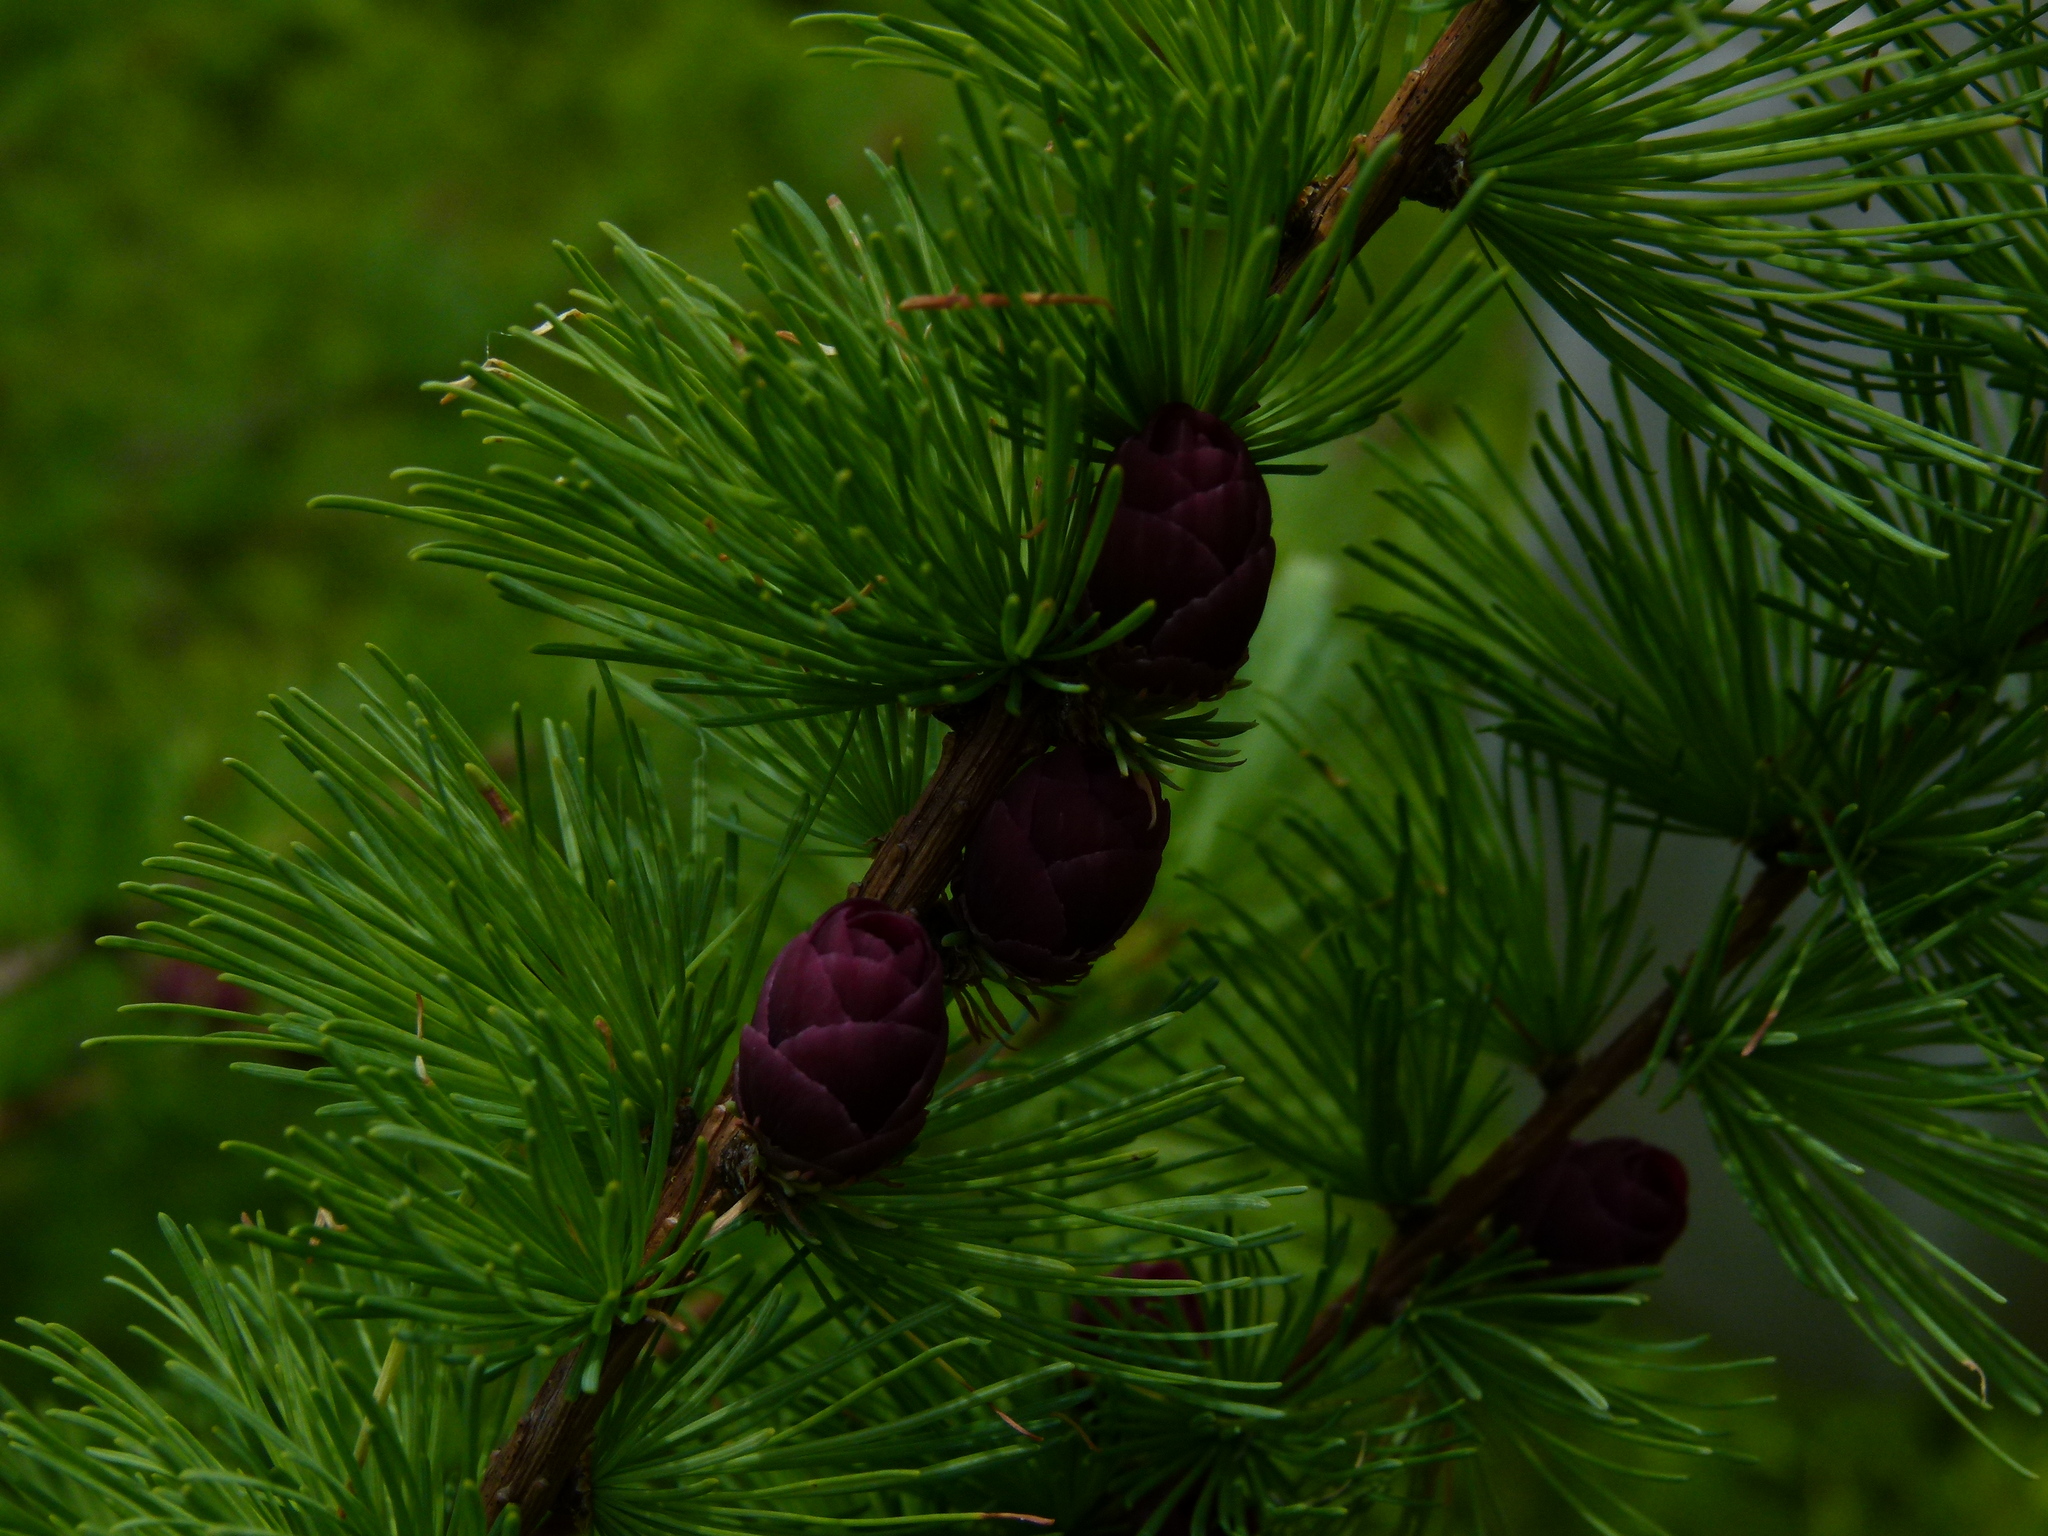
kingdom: Plantae
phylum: Tracheophyta
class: Pinopsida
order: Pinales
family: Pinaceae
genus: Larix
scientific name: Larix laricina
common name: American larch
